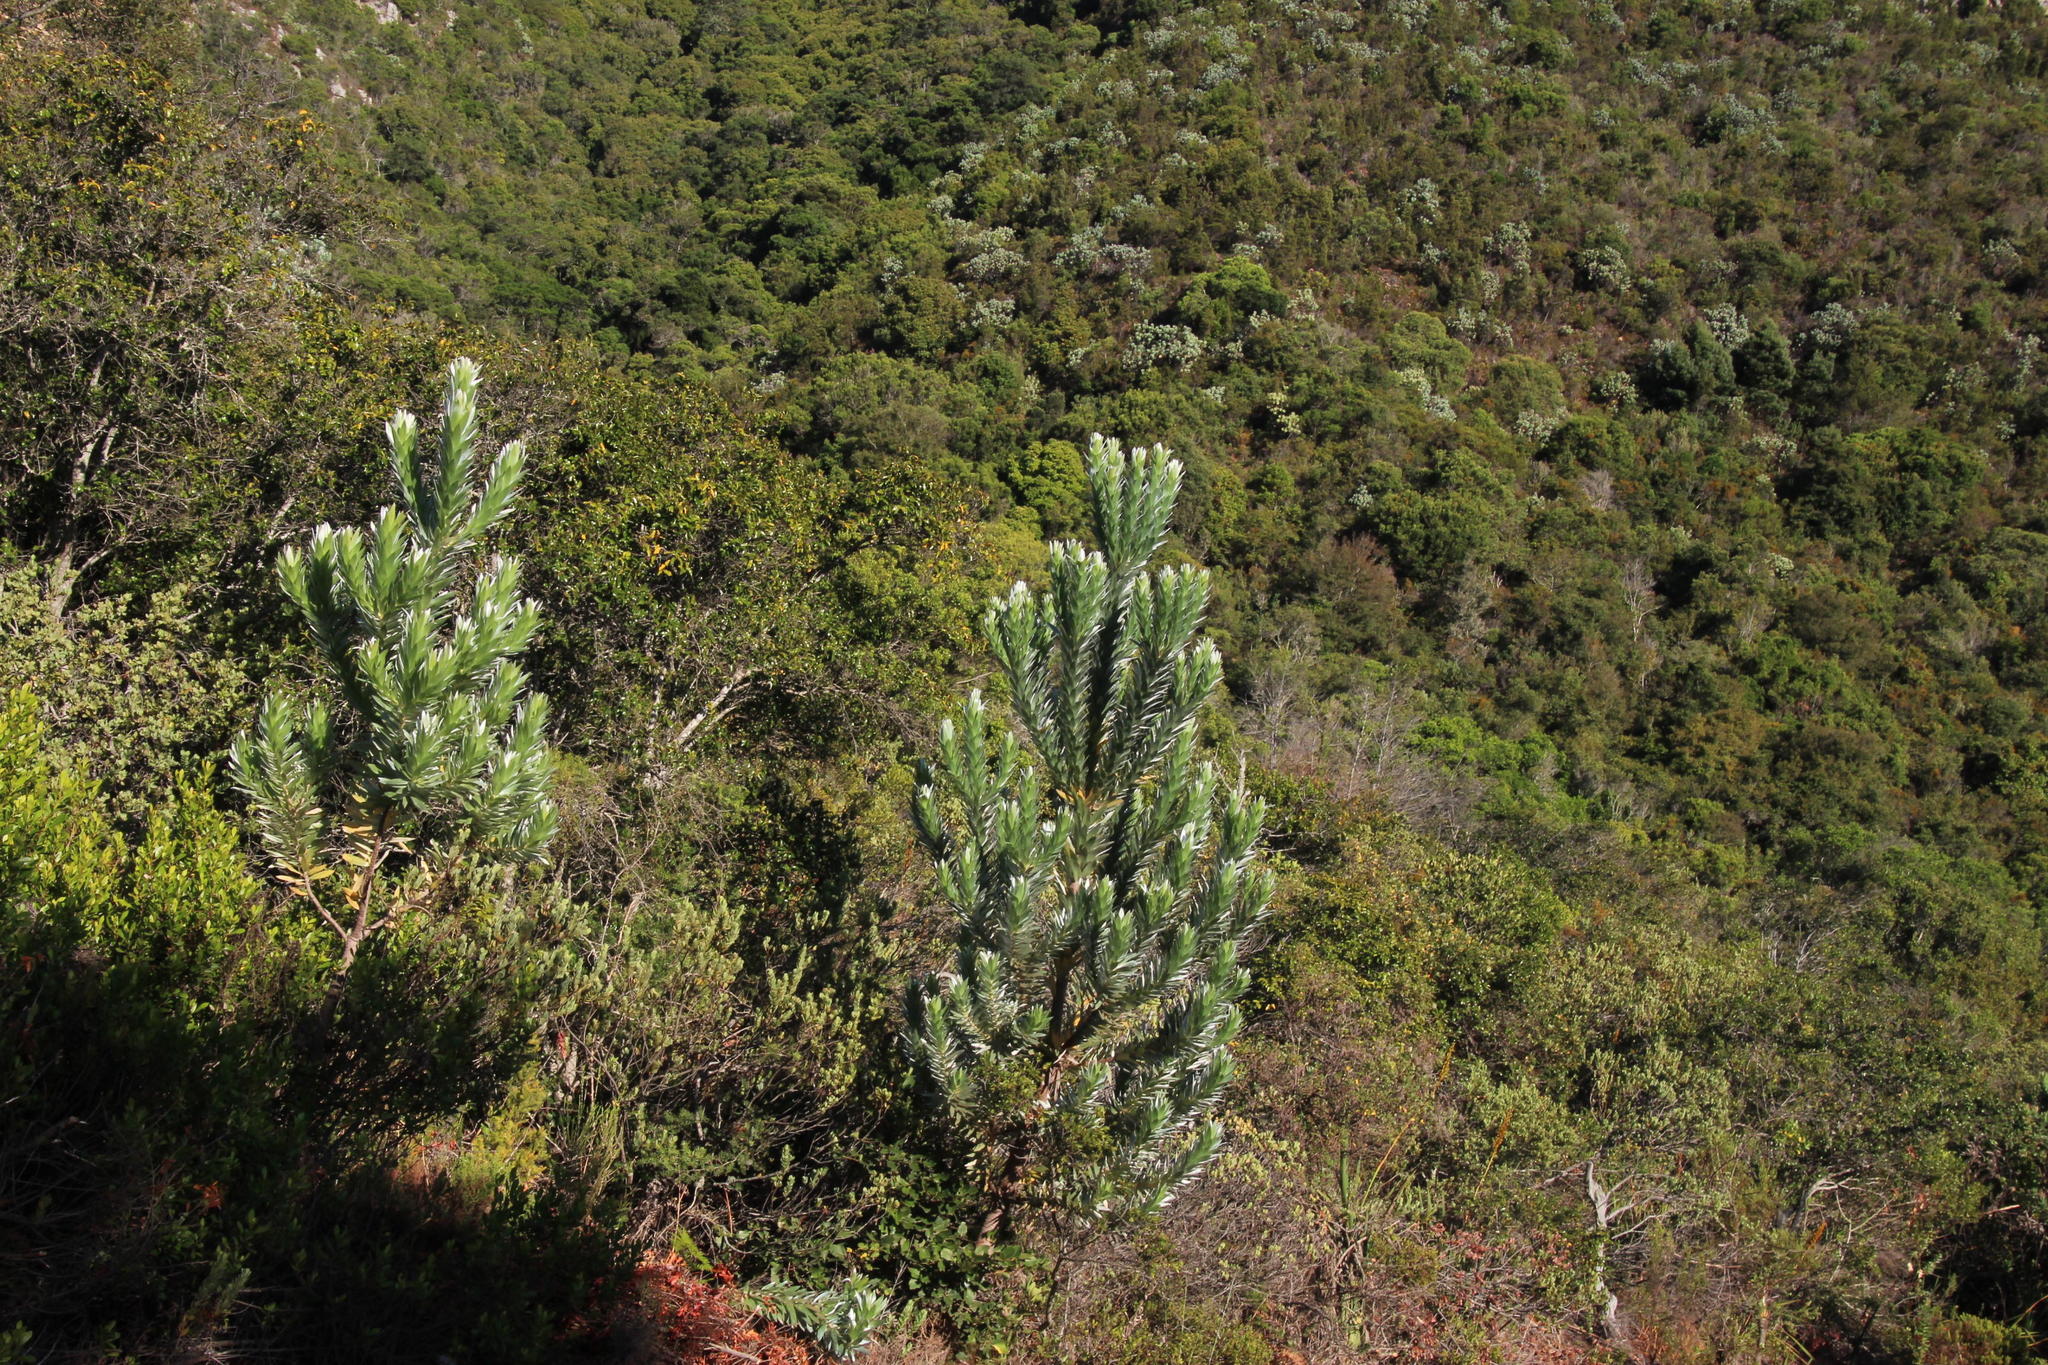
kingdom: Plantae
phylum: Tracheophyta
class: Magnoliopsida
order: Proteales
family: Proteaceae
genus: Leucadendron
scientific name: Leucadendron argenteum
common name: Cape silver tree
